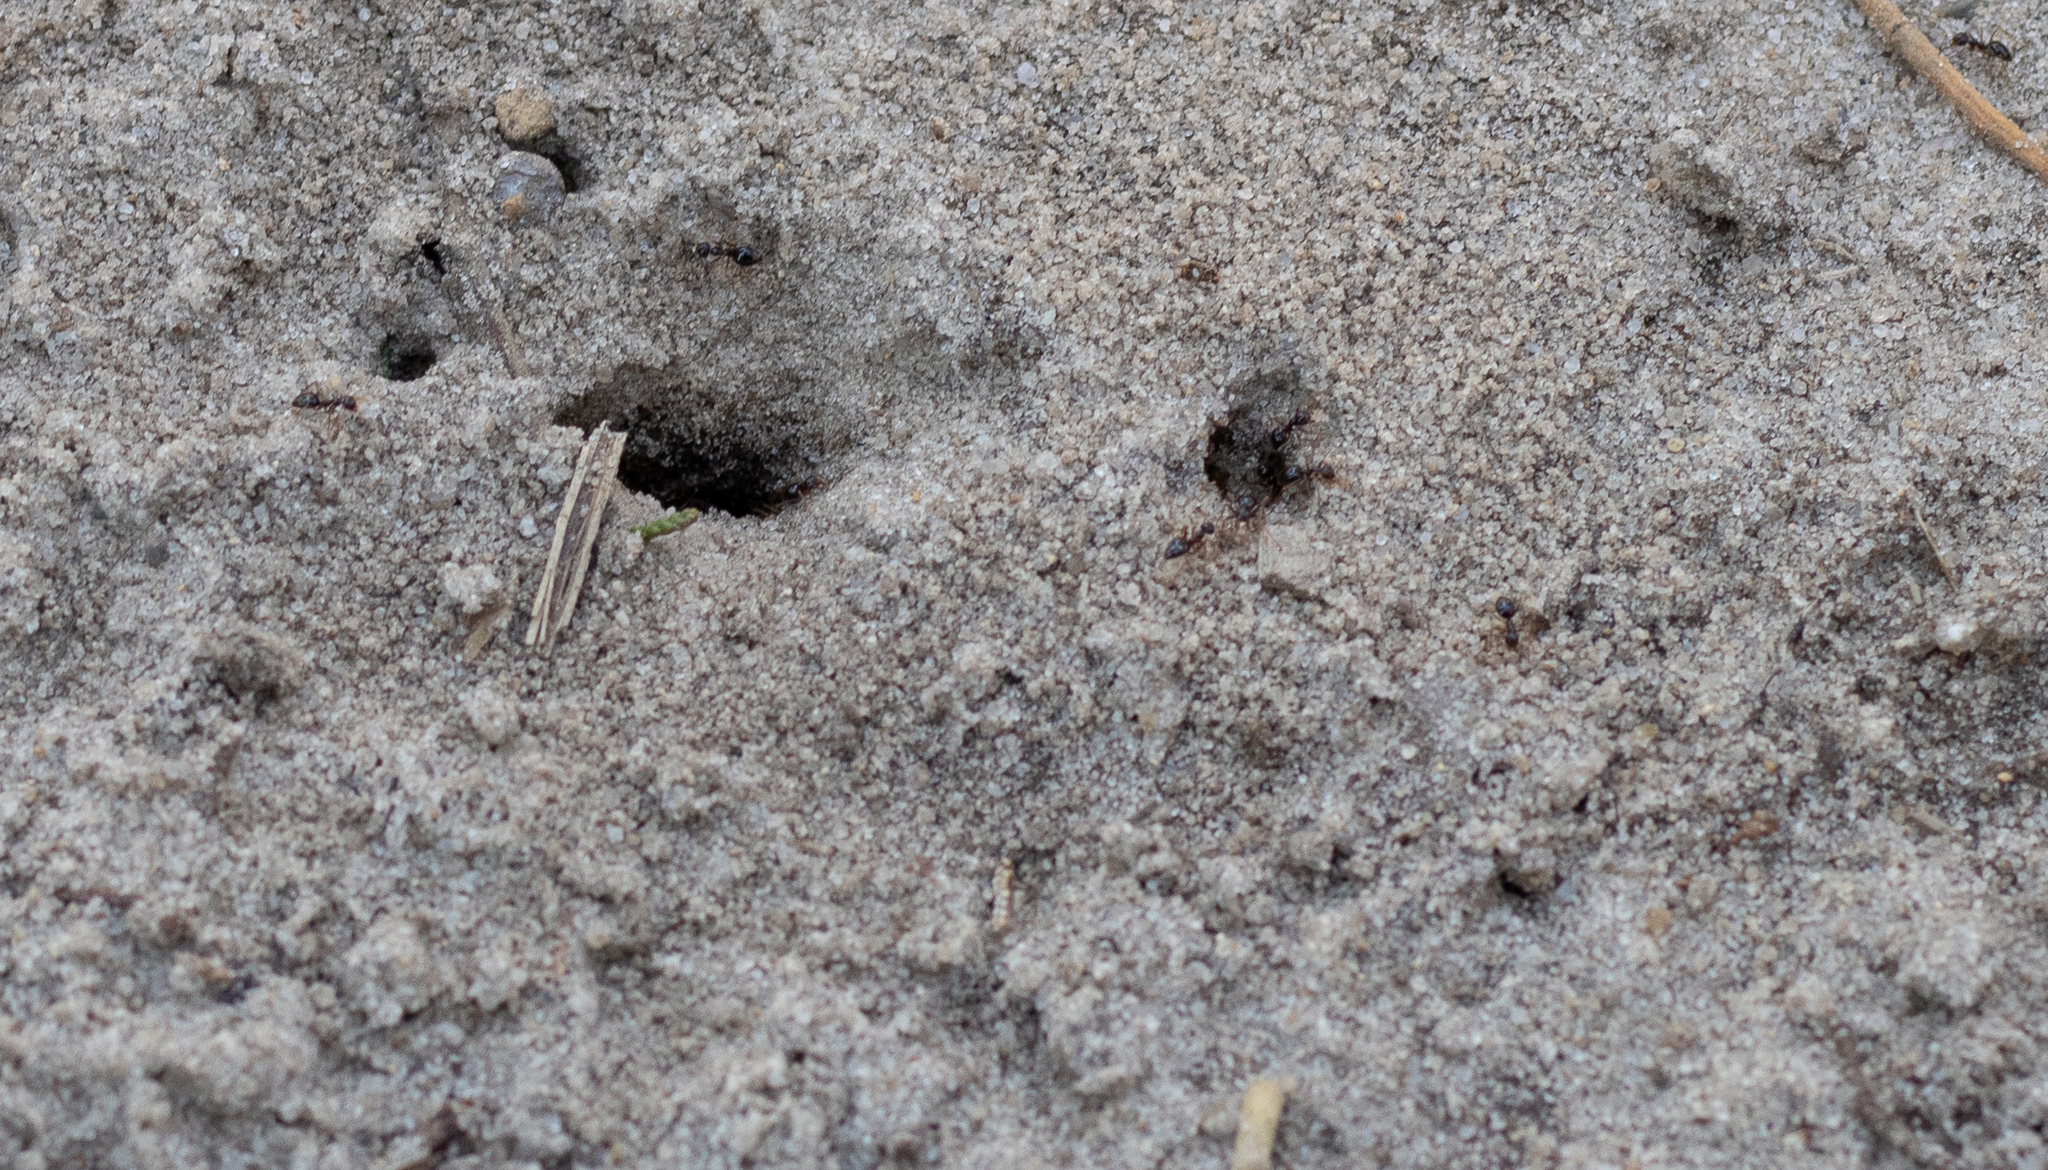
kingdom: Animalia
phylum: Arthropoda
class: Insecta
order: Hymenoptera
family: Formicidae
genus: Prenolepis
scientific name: Prenolepis imparis
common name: Small honey ant
